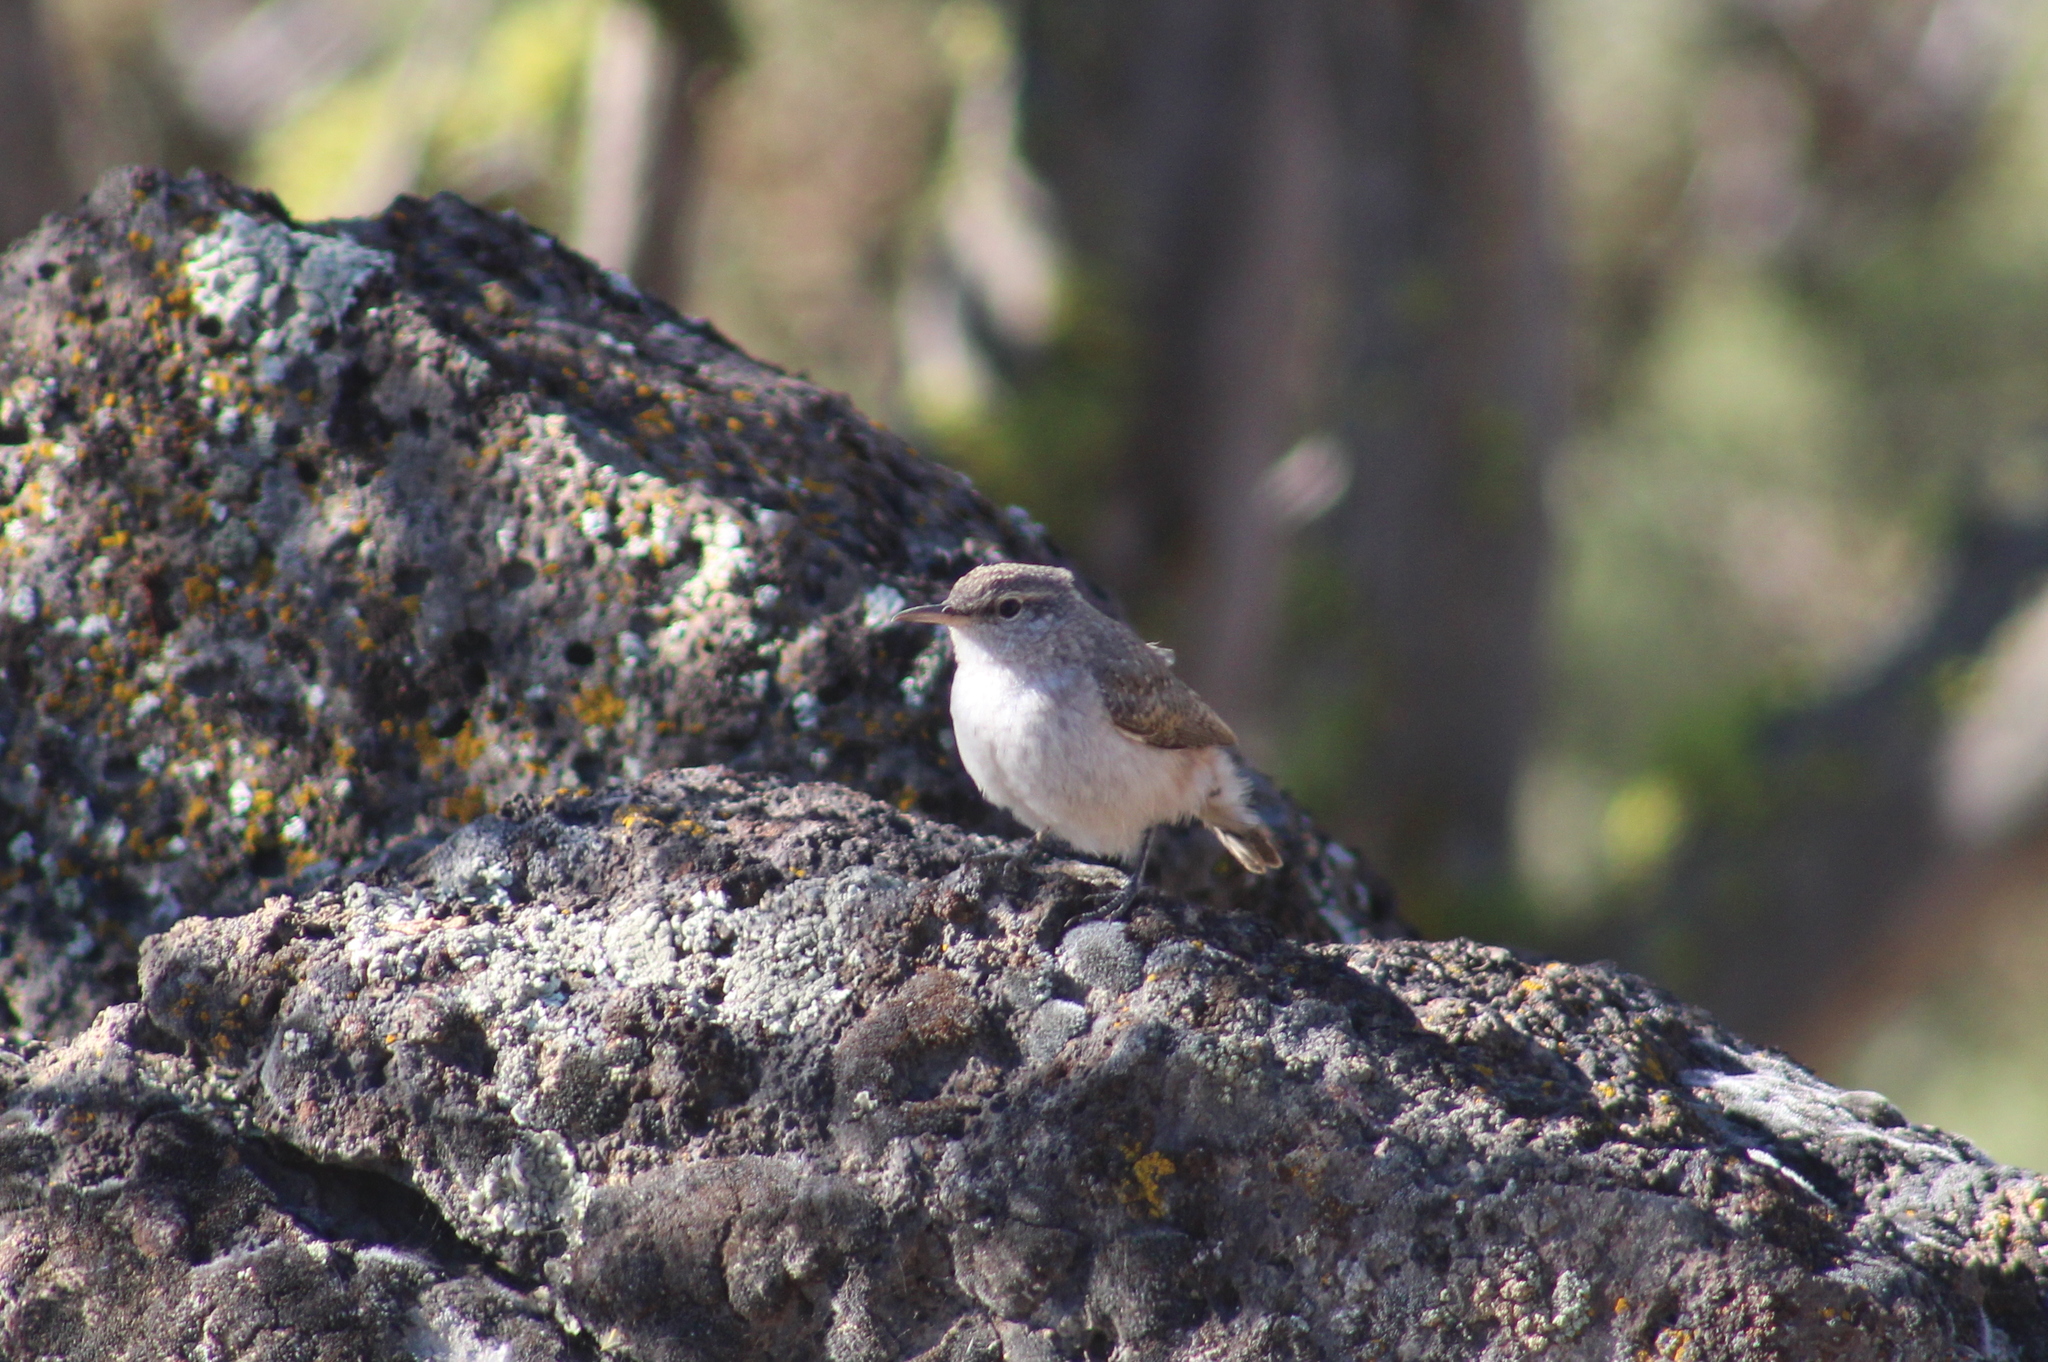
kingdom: Animalia
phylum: Chordata
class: Aves
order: Passeriformes
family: Troglodytidae
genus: Salpinctes
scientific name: Salpinctes obsoletus
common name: Rock wren
